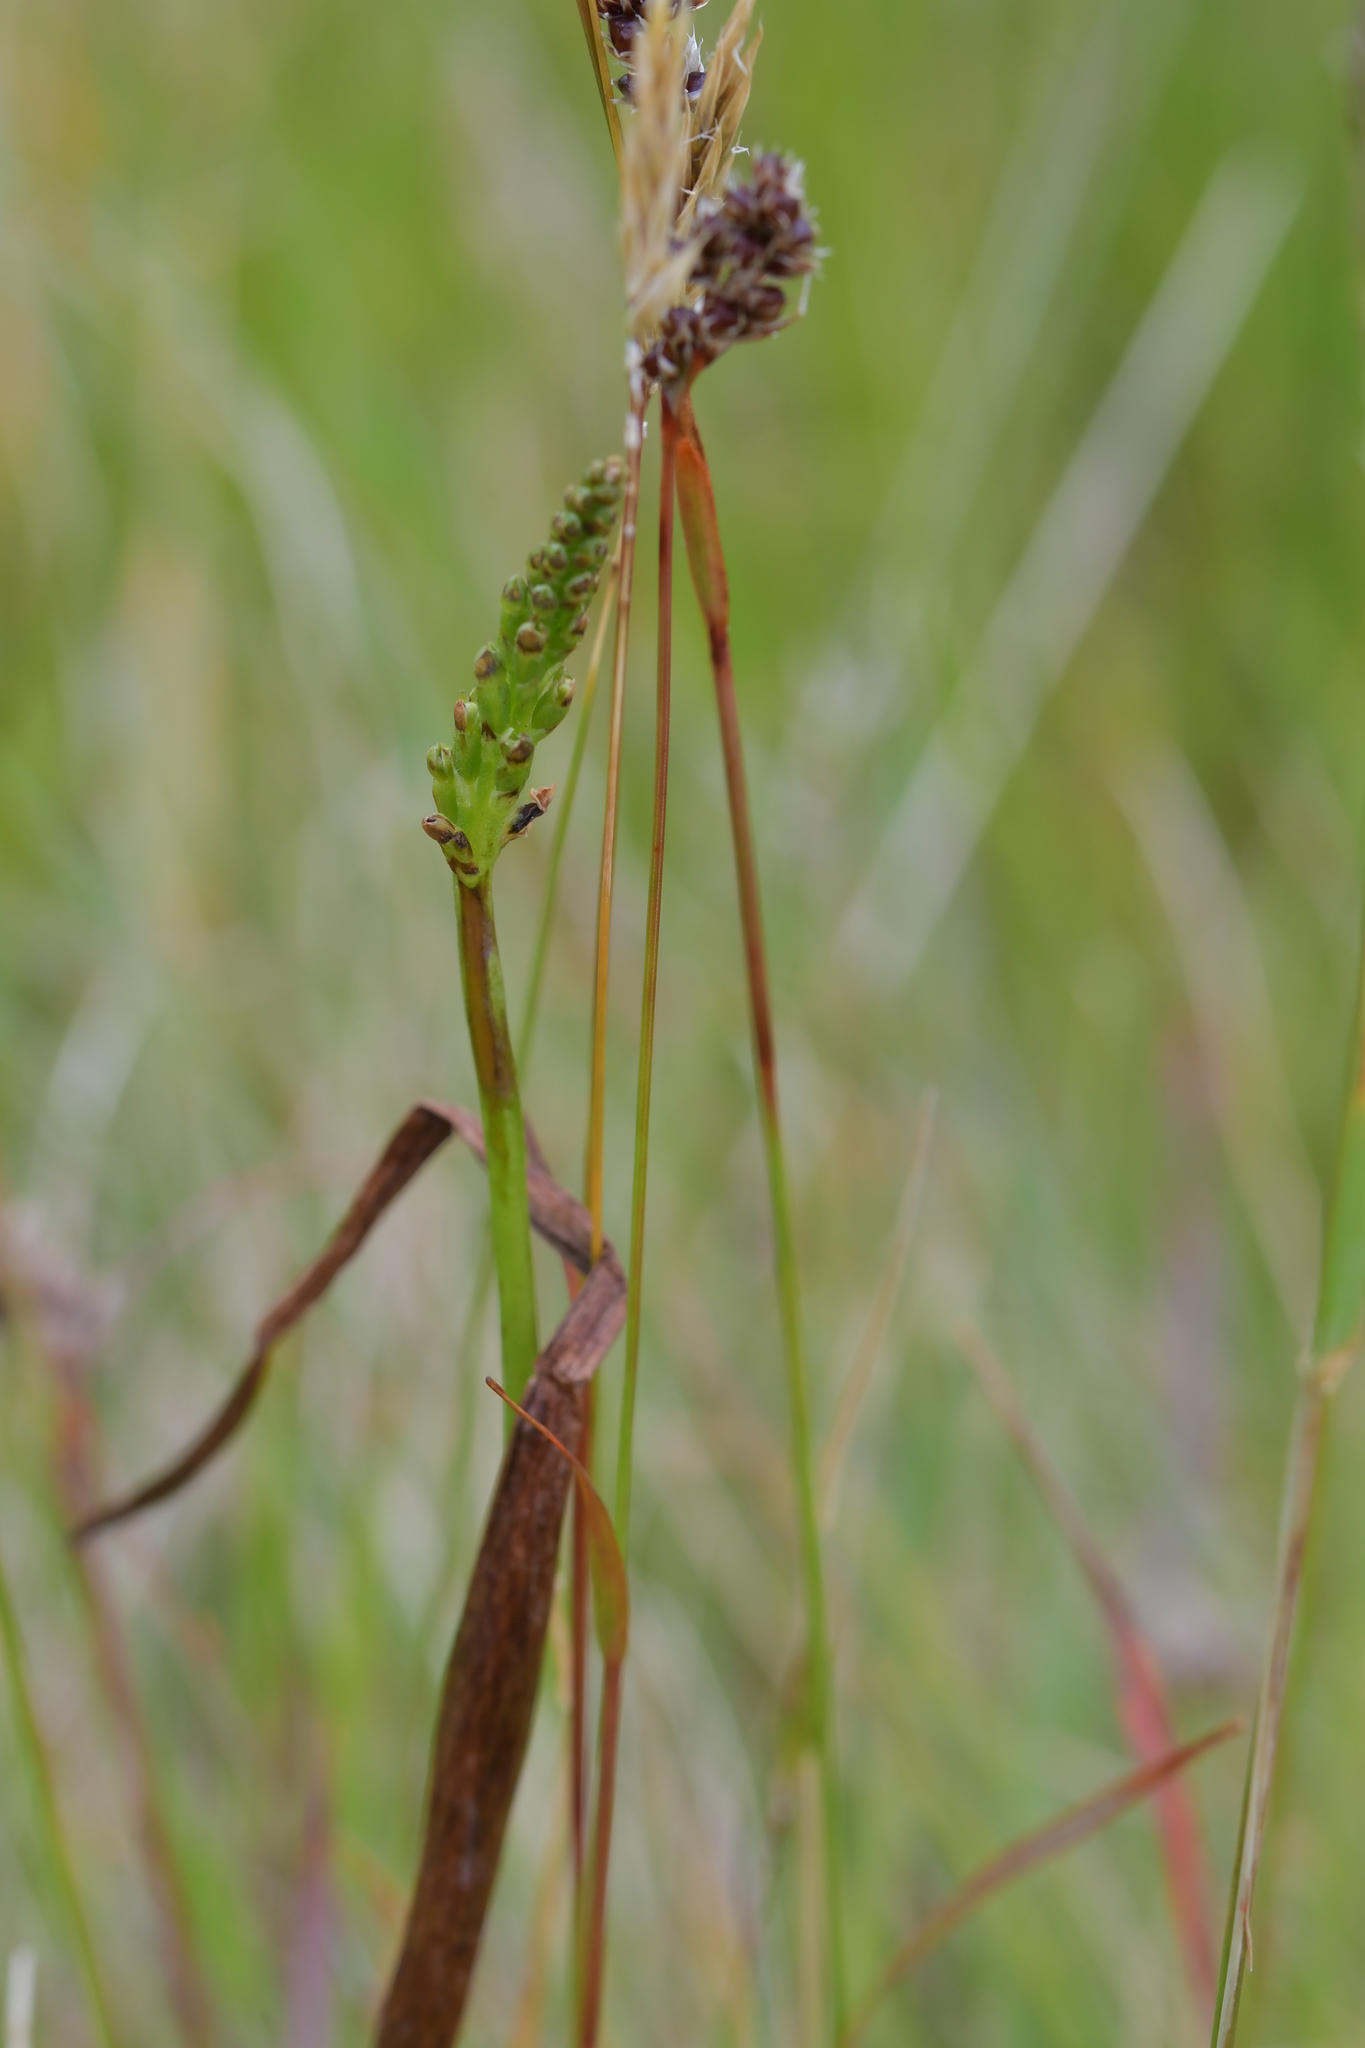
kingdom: Plantae
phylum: Tracheophyta
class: Liliopsida
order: Asparagales
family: Orchidaceae
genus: Microtis
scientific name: Microtis unifolia
